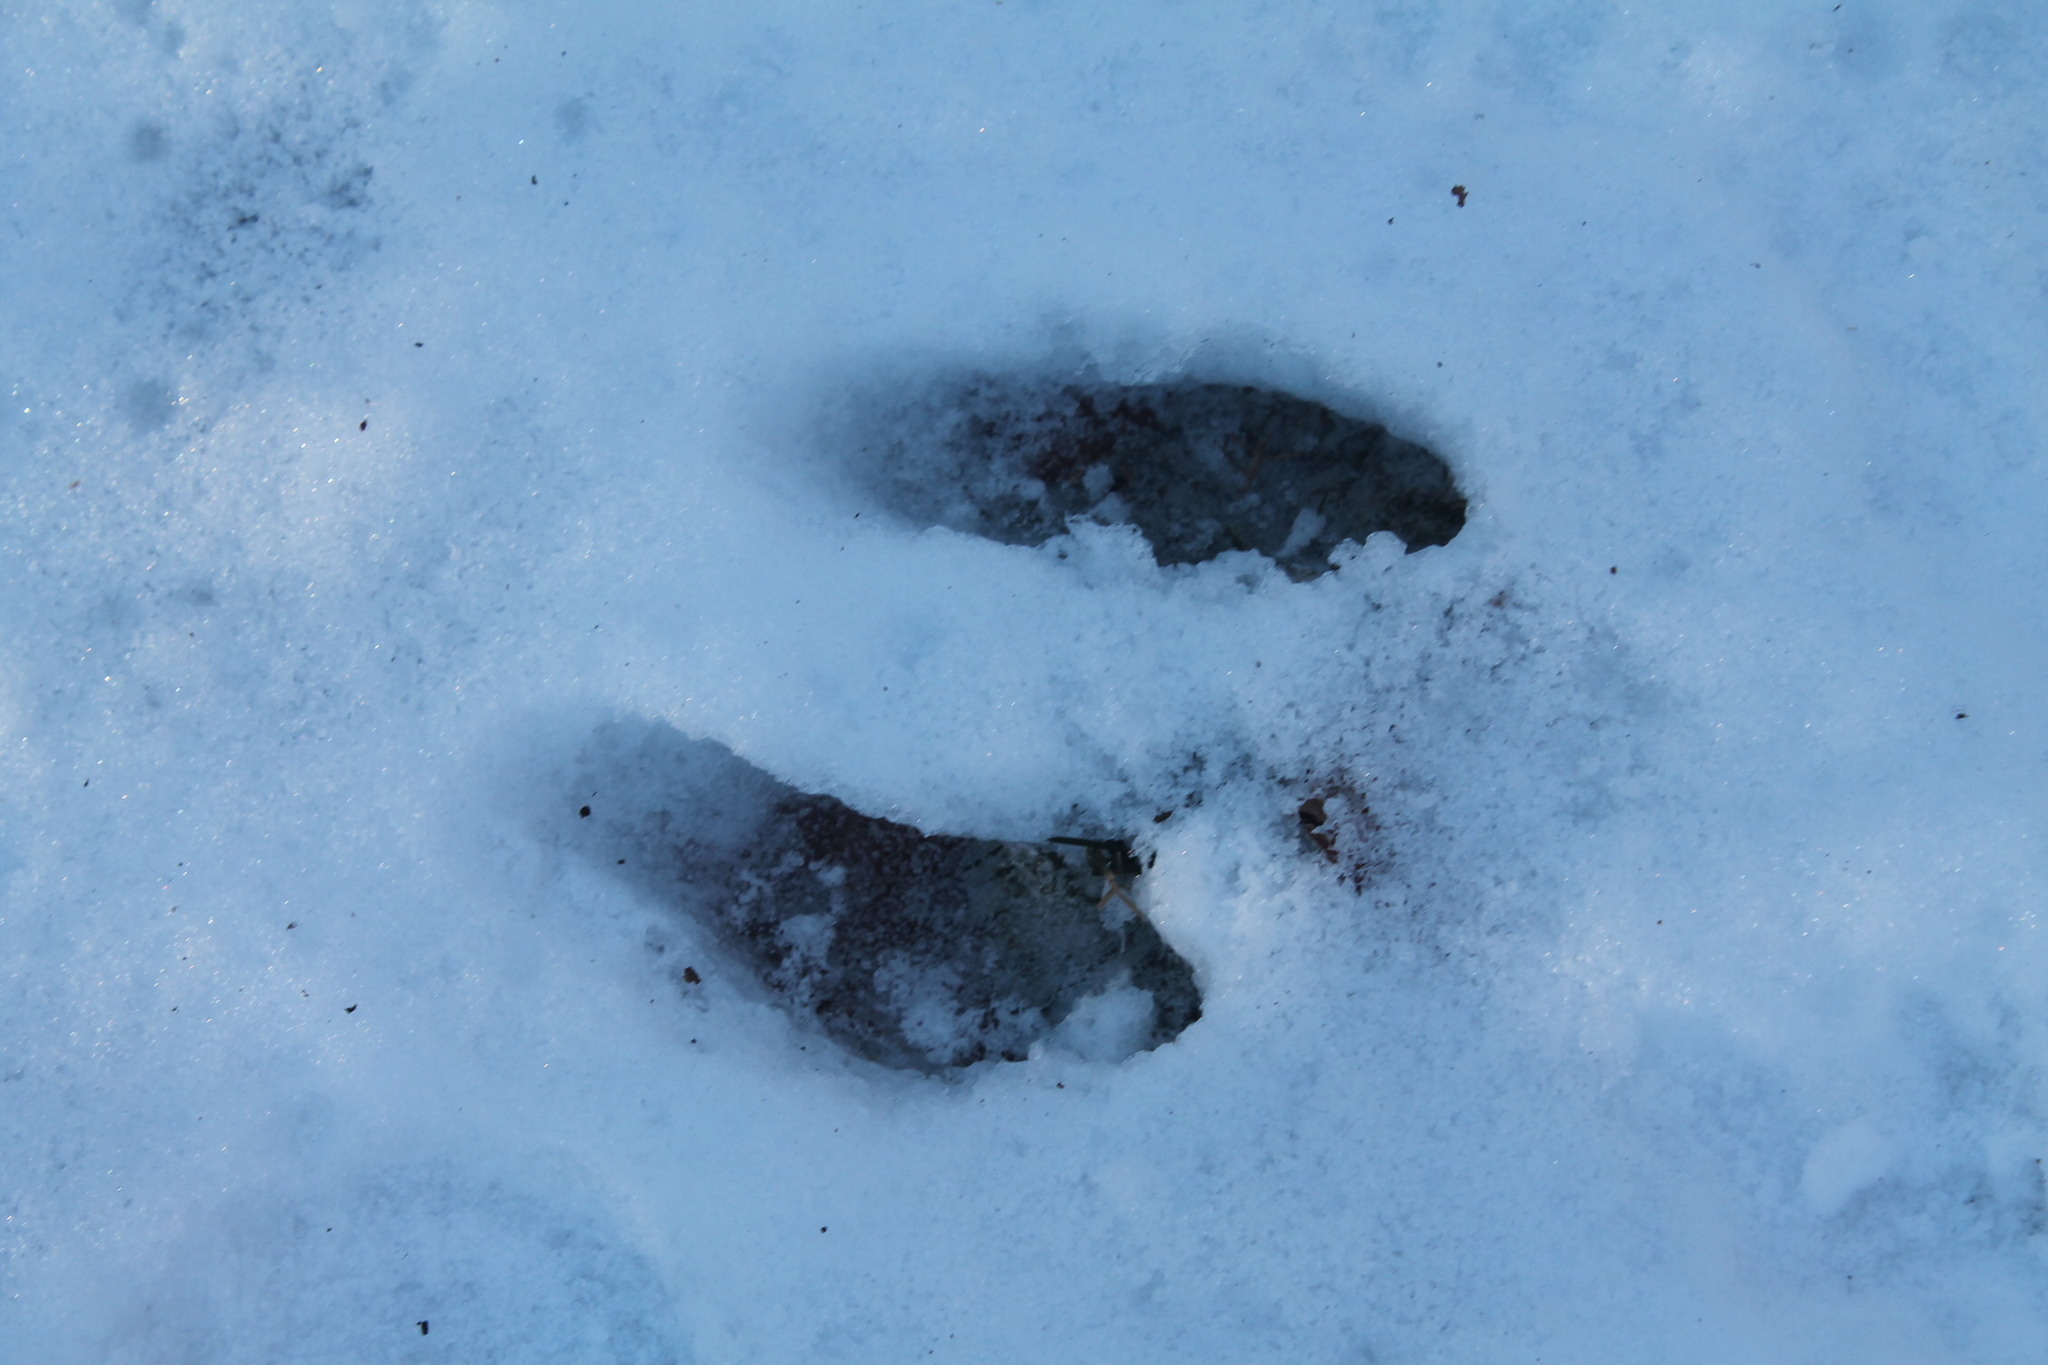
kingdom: Animalia
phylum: Chordata
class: Mammalia
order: Lagomorpha
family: Leporidae
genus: Sylvilagus
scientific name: Sylvilagus floridanus
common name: Eastern cottontail
